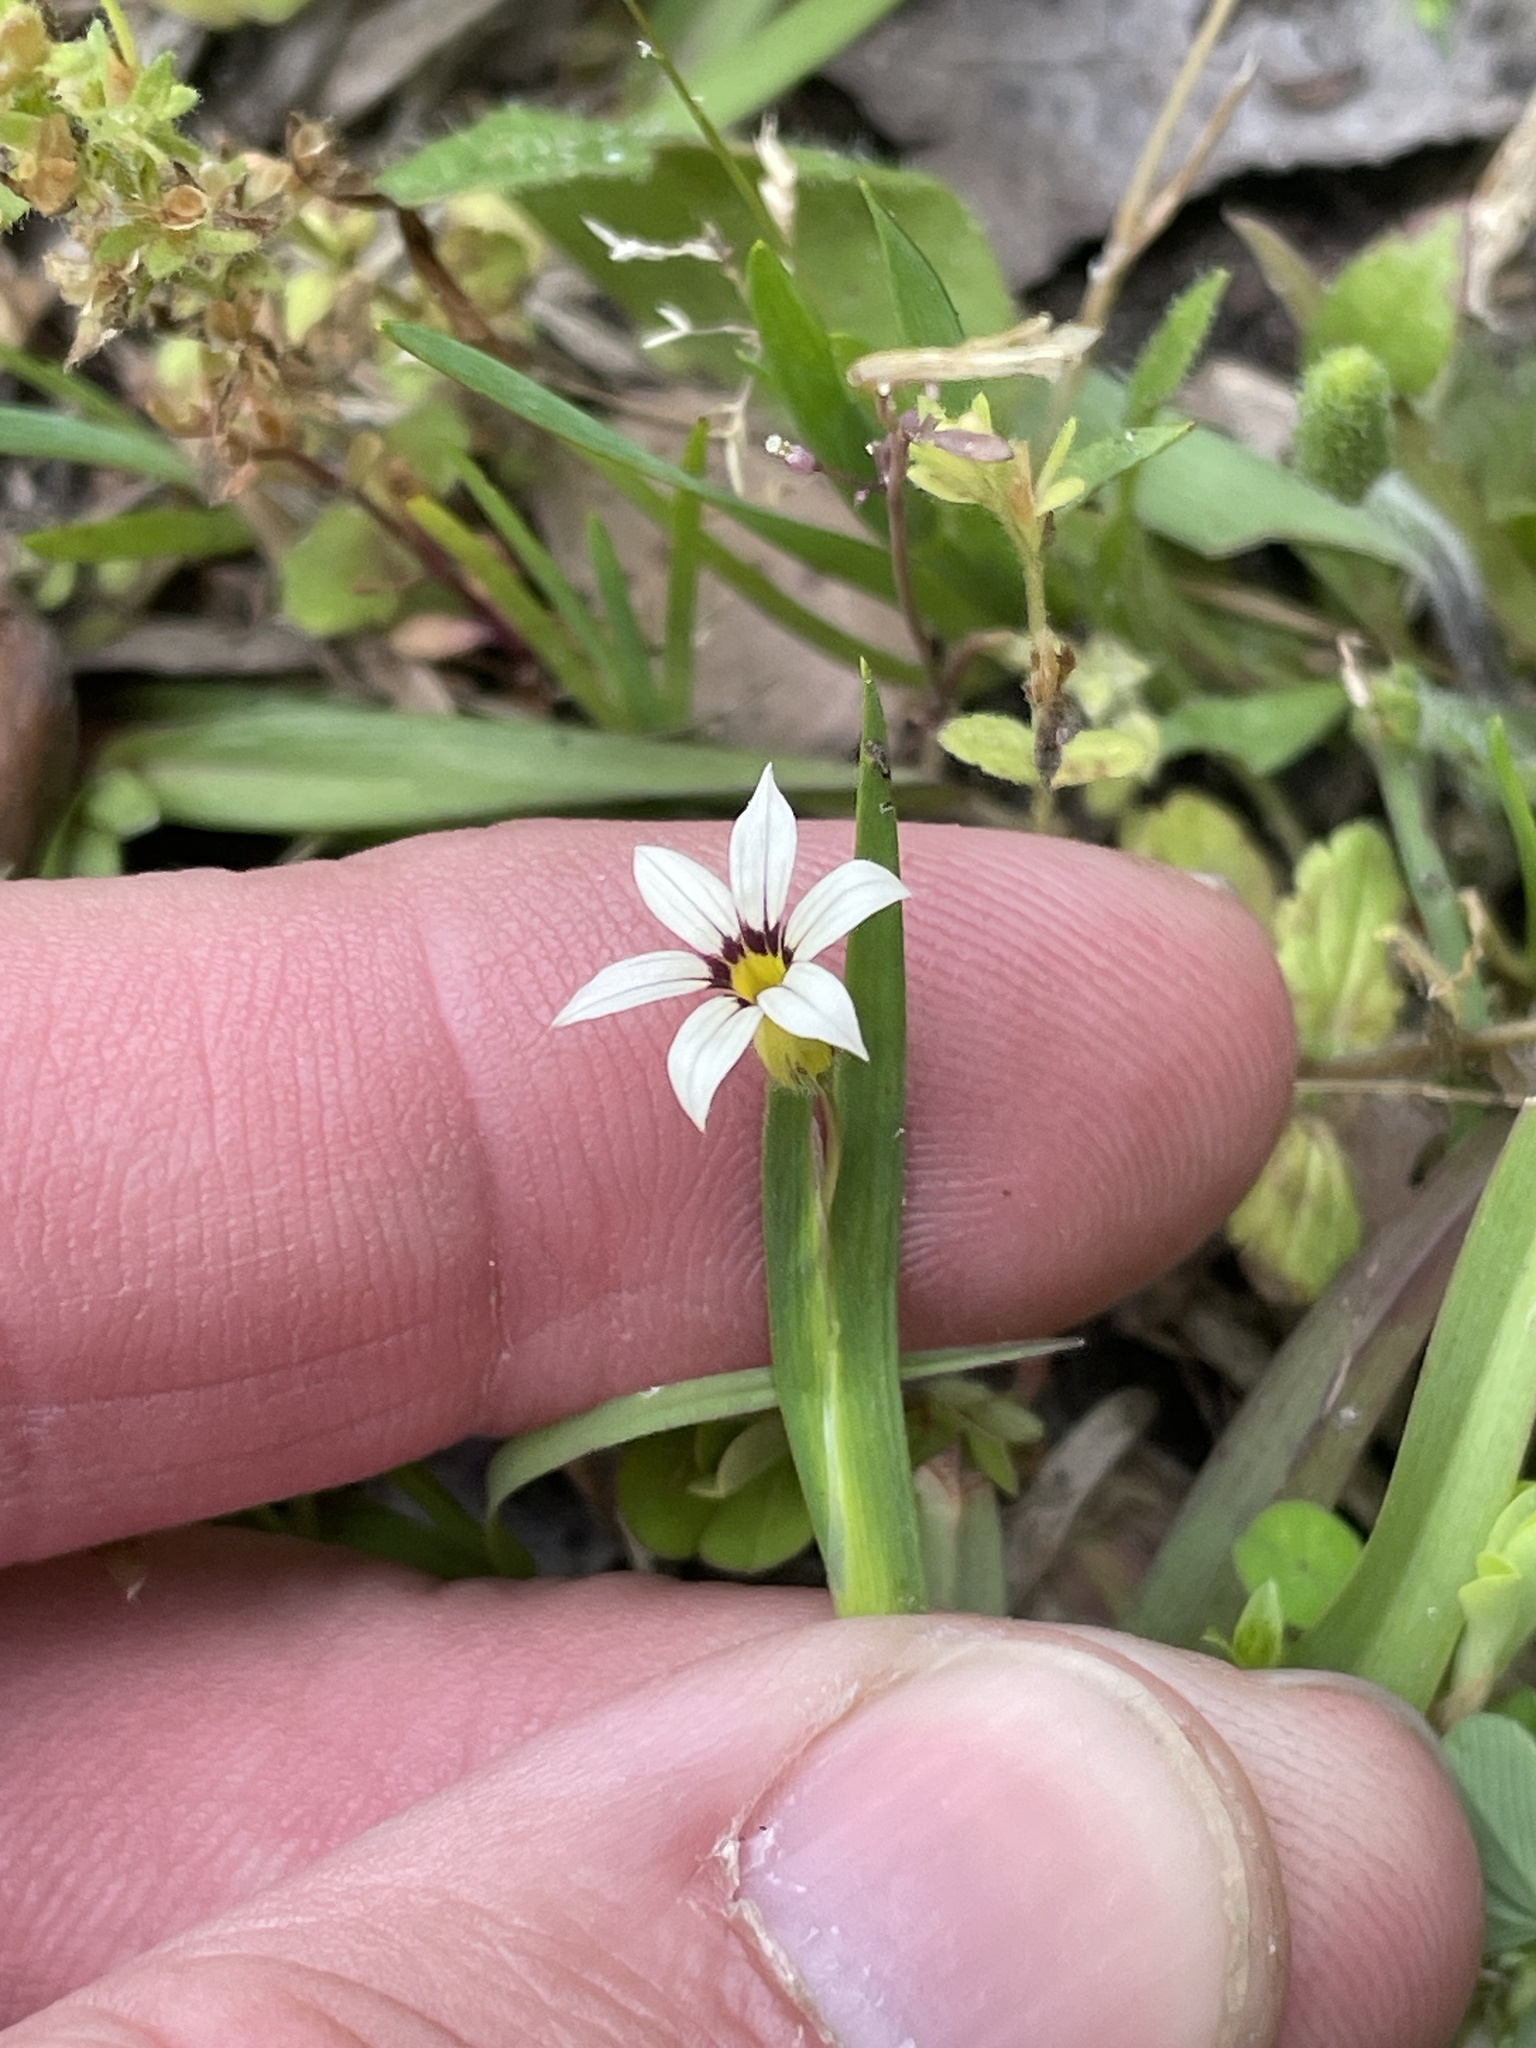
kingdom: Plantae
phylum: Tracheophyta
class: Liliopsida
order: Asparagales
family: Iridaceae
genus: Sisyrinchium
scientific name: Sisyrinchium micranthum
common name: Bermuda pigroot
